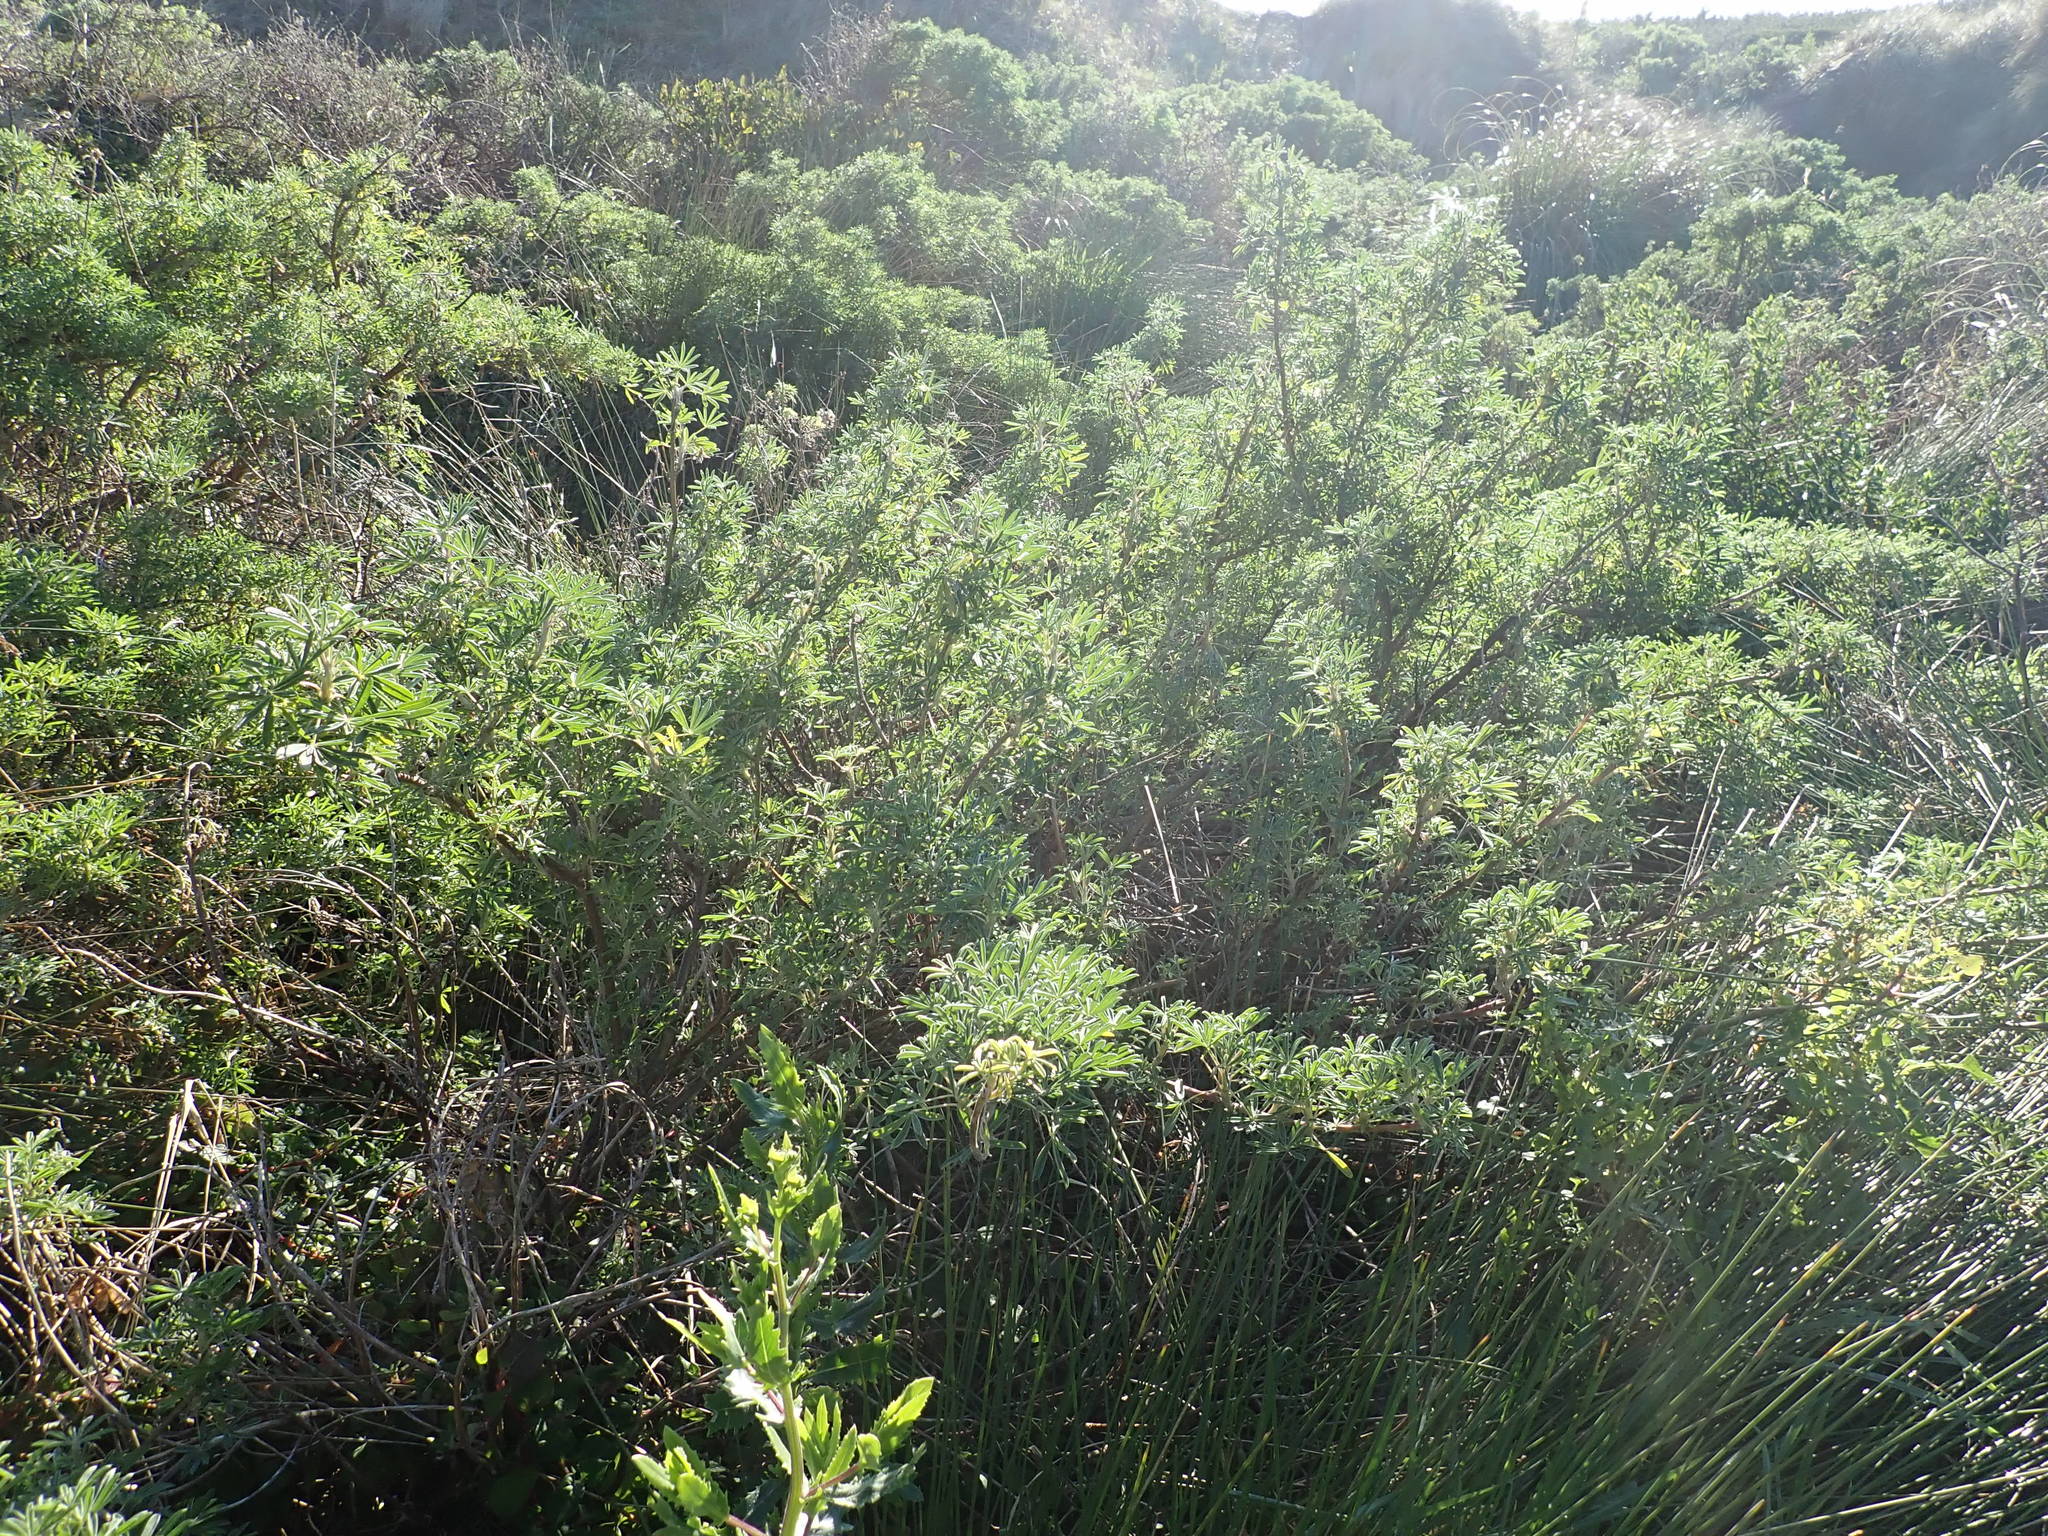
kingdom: Plantae
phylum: Tracheophyta
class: Magnoliopsida
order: Fabales
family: Fabaceae
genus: Lupinus
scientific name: Lupinus arboreus
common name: Yellow bush lupine
